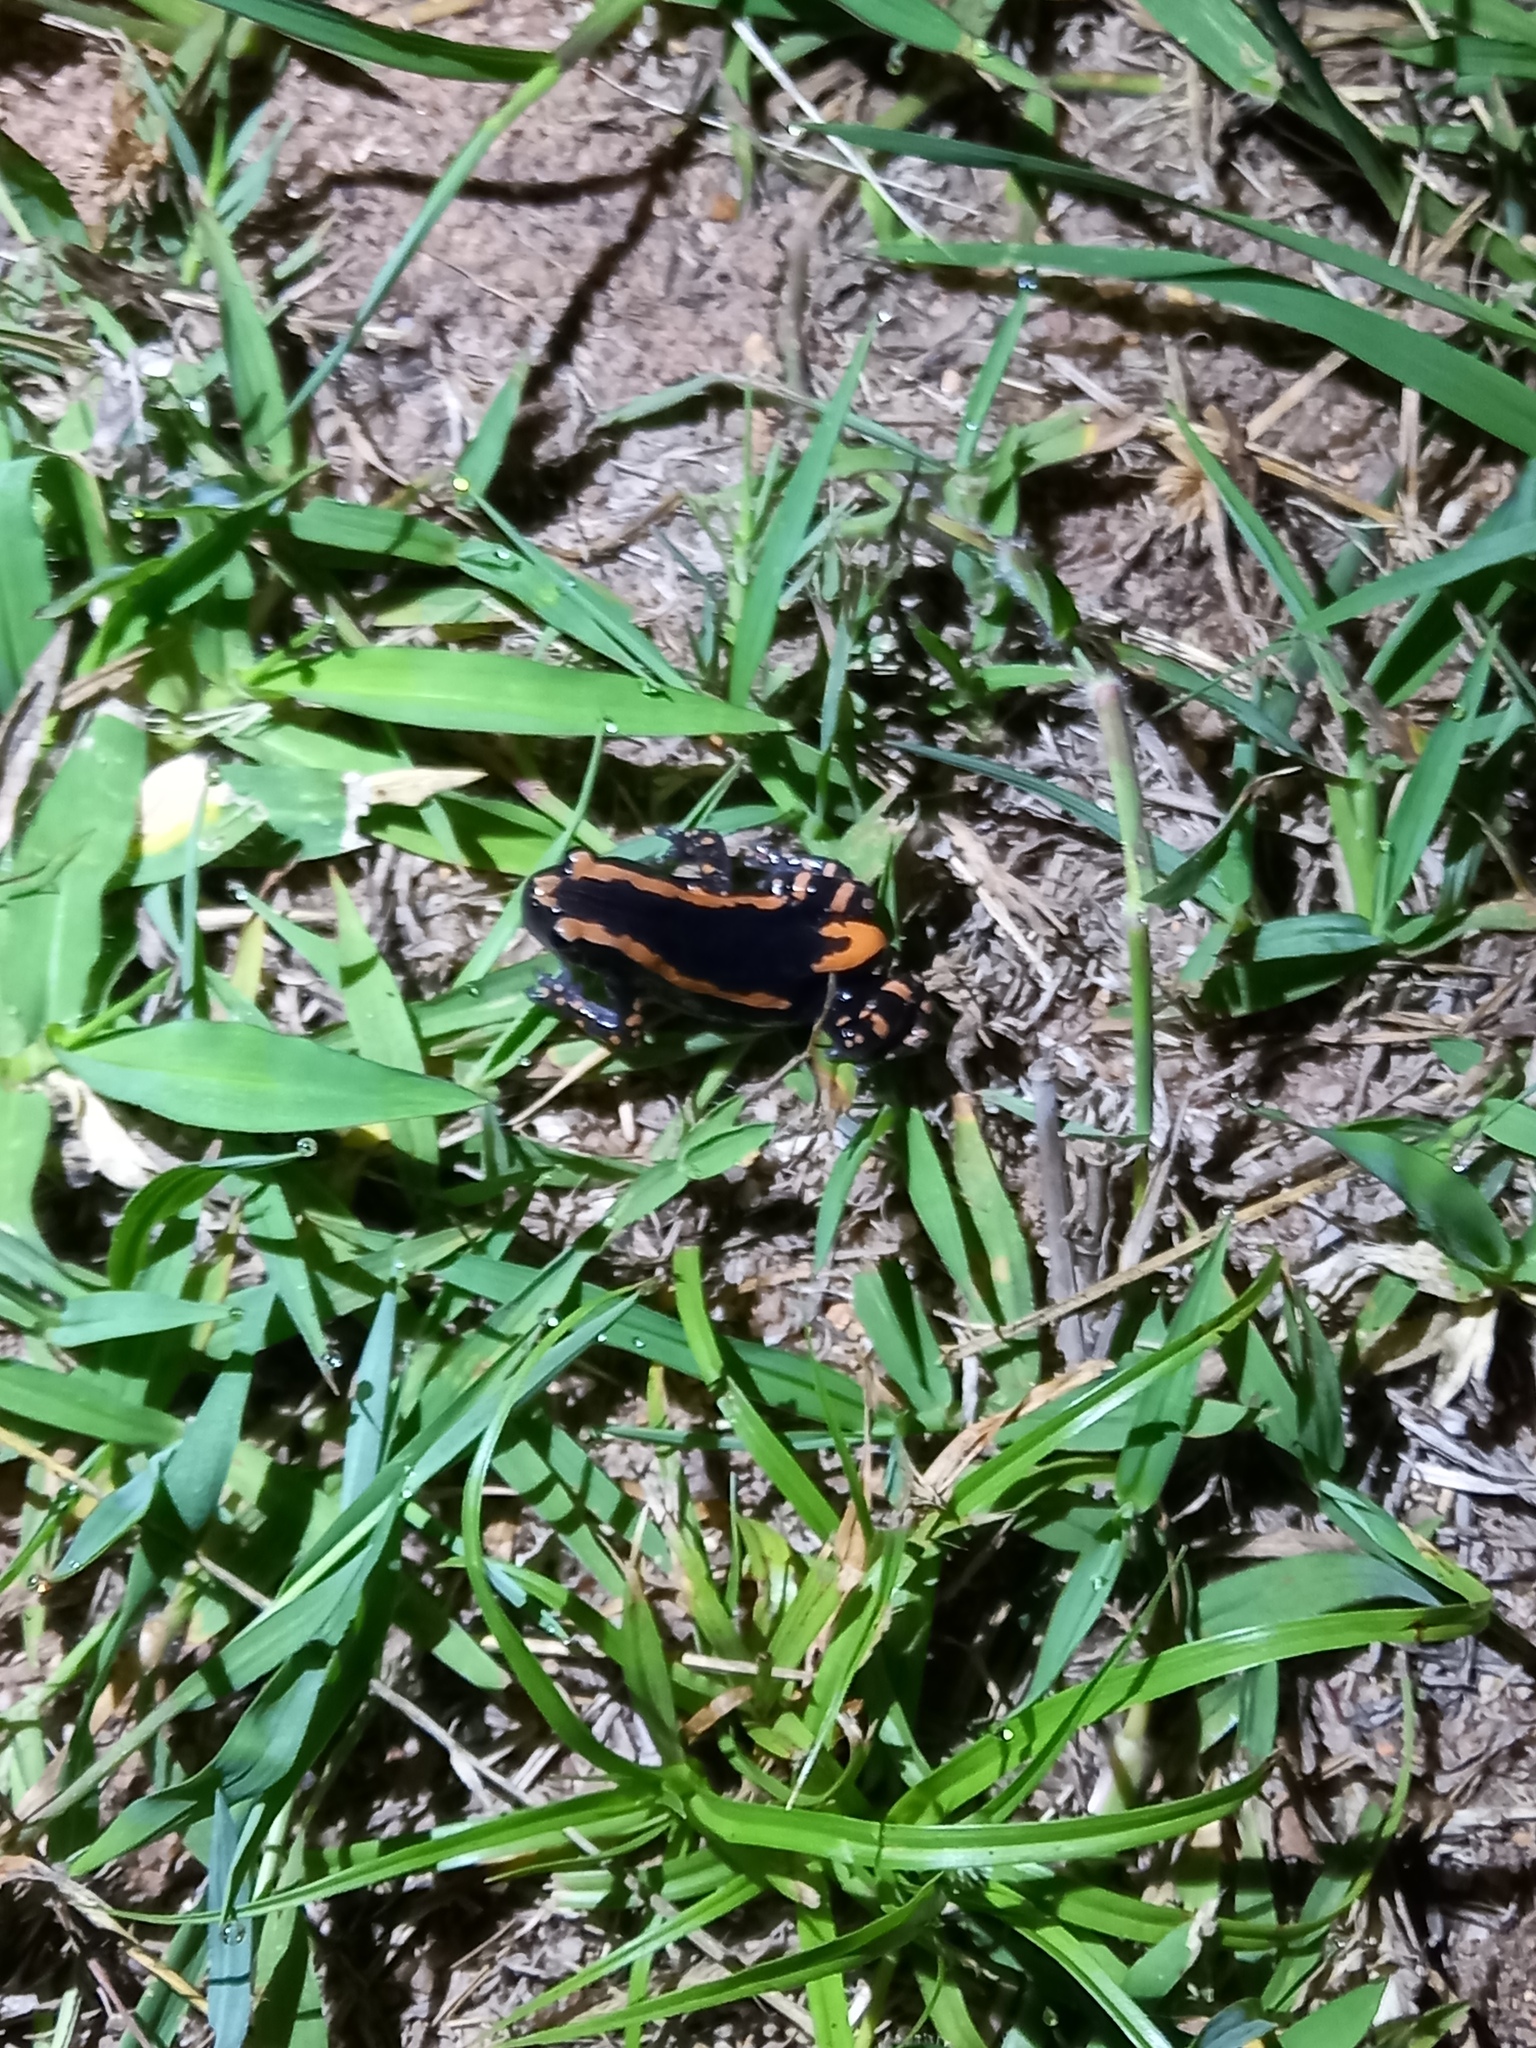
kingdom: Animalia
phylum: Chordata
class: Amphibia
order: Anura
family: Microhylidae
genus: Phrynomantis
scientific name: Phrynomantis bifasciatus
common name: Banded rubber frog
